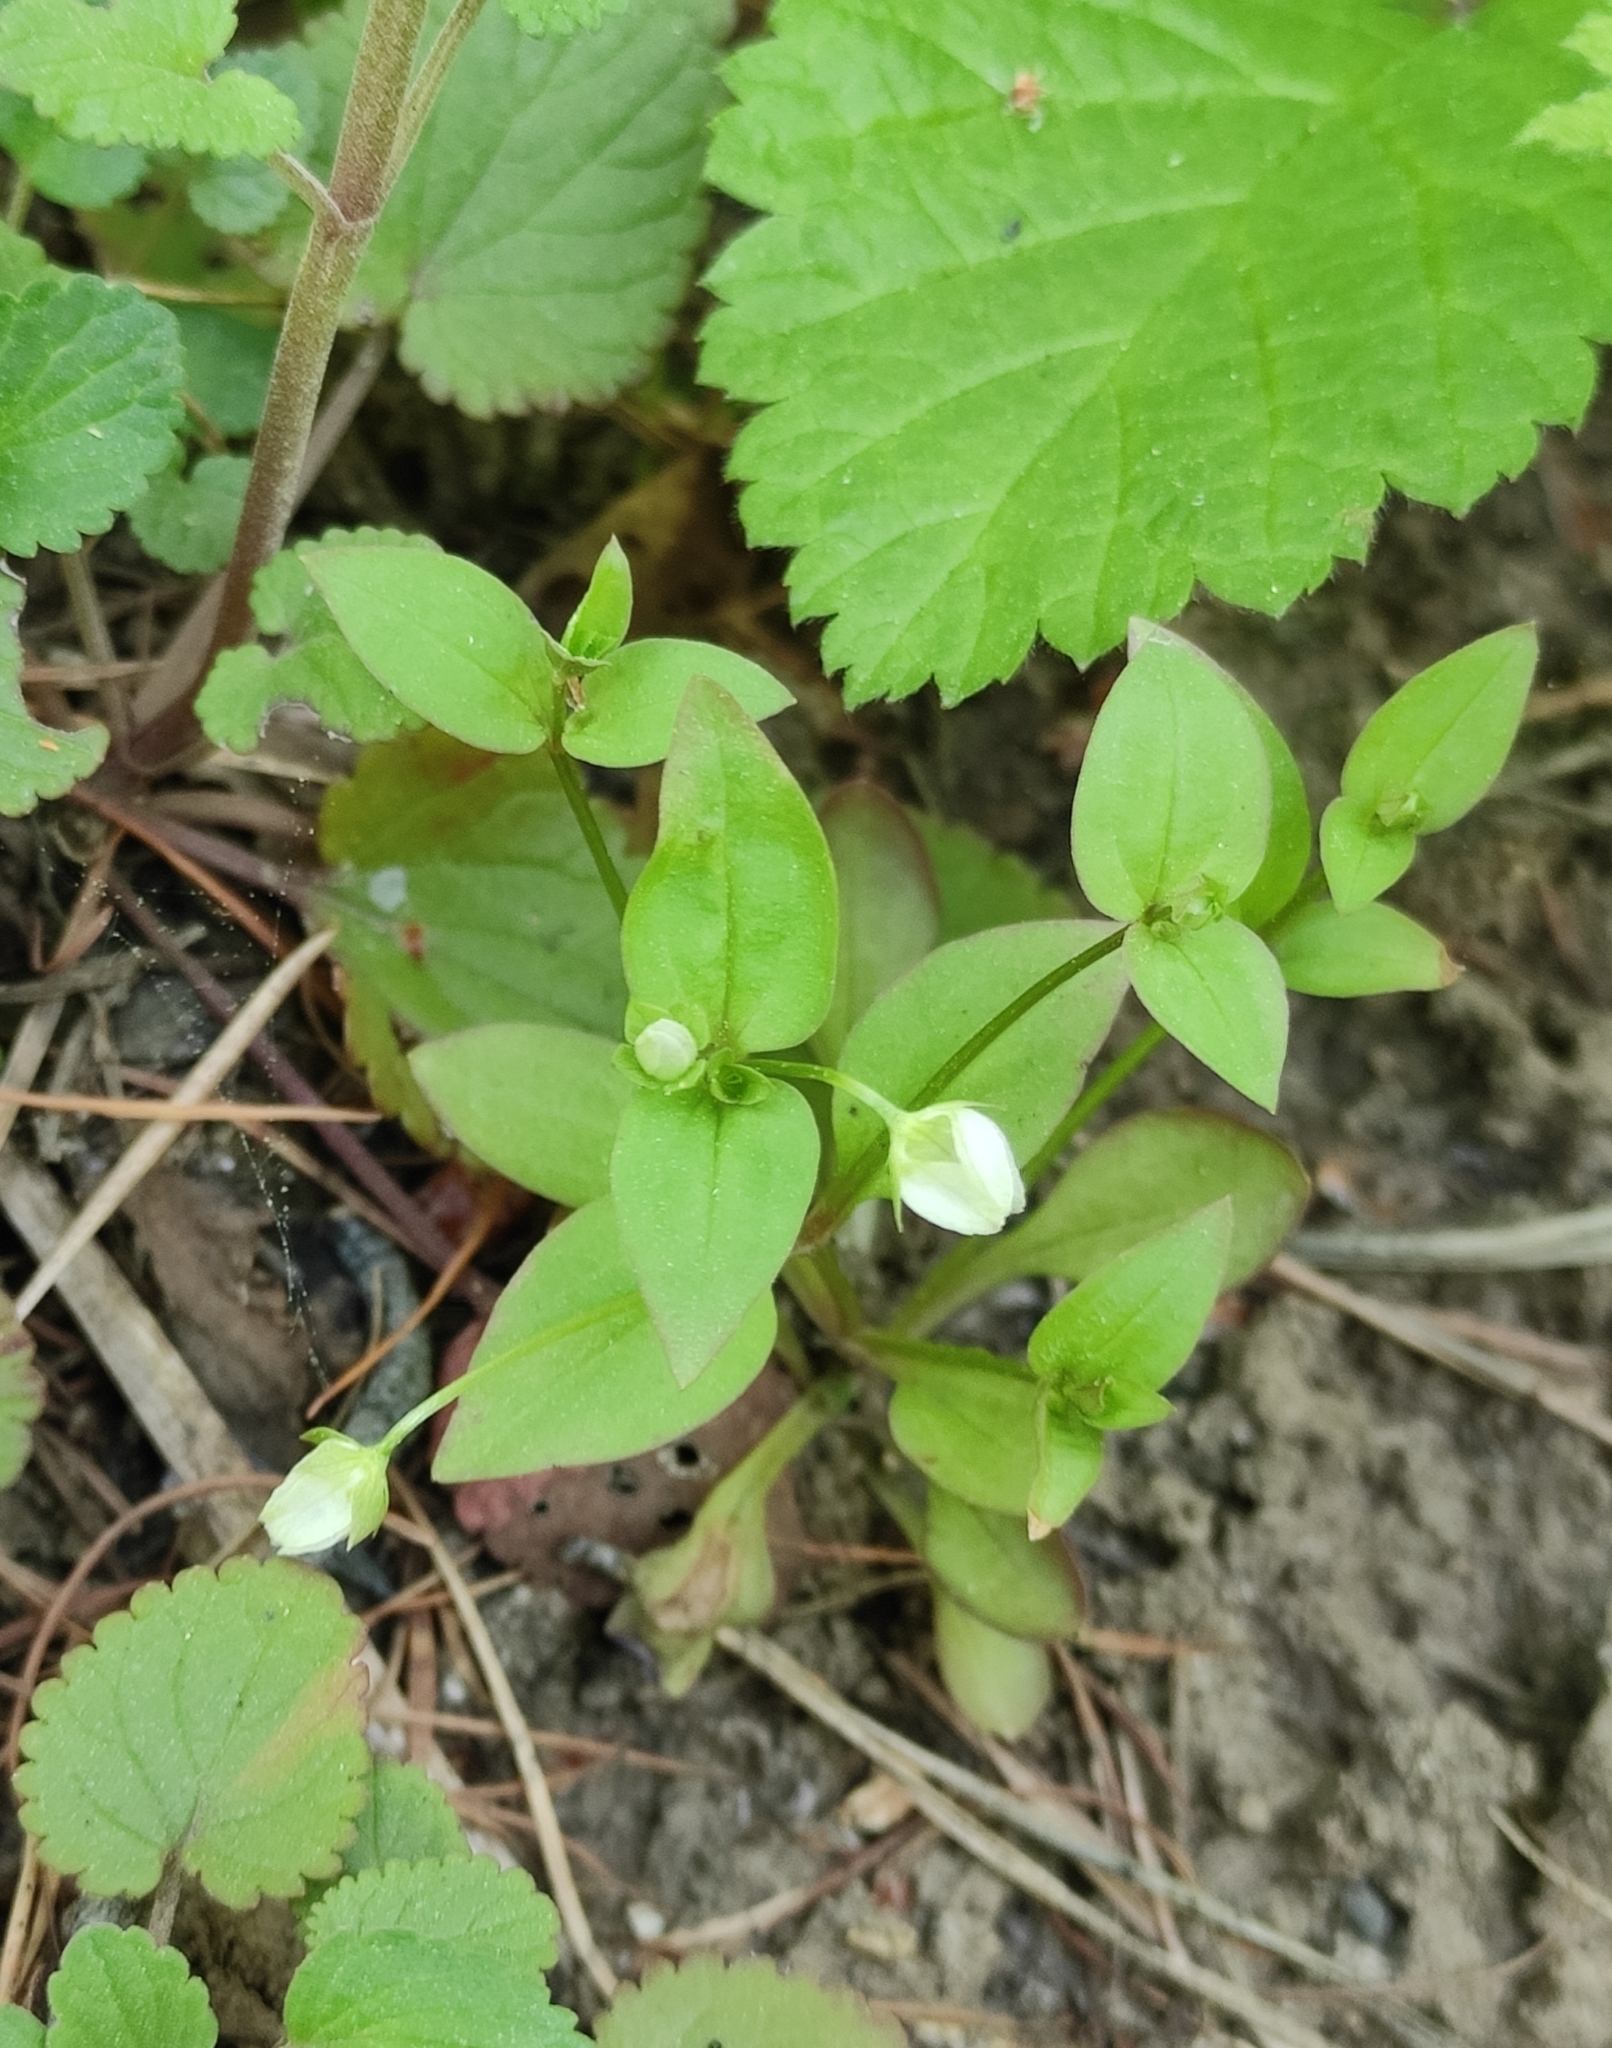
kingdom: Plantae
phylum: Tracheophyta
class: Magnoliopsida
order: Gentianales
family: Gentianaceae
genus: Swertia
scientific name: Swertia dichotoma
